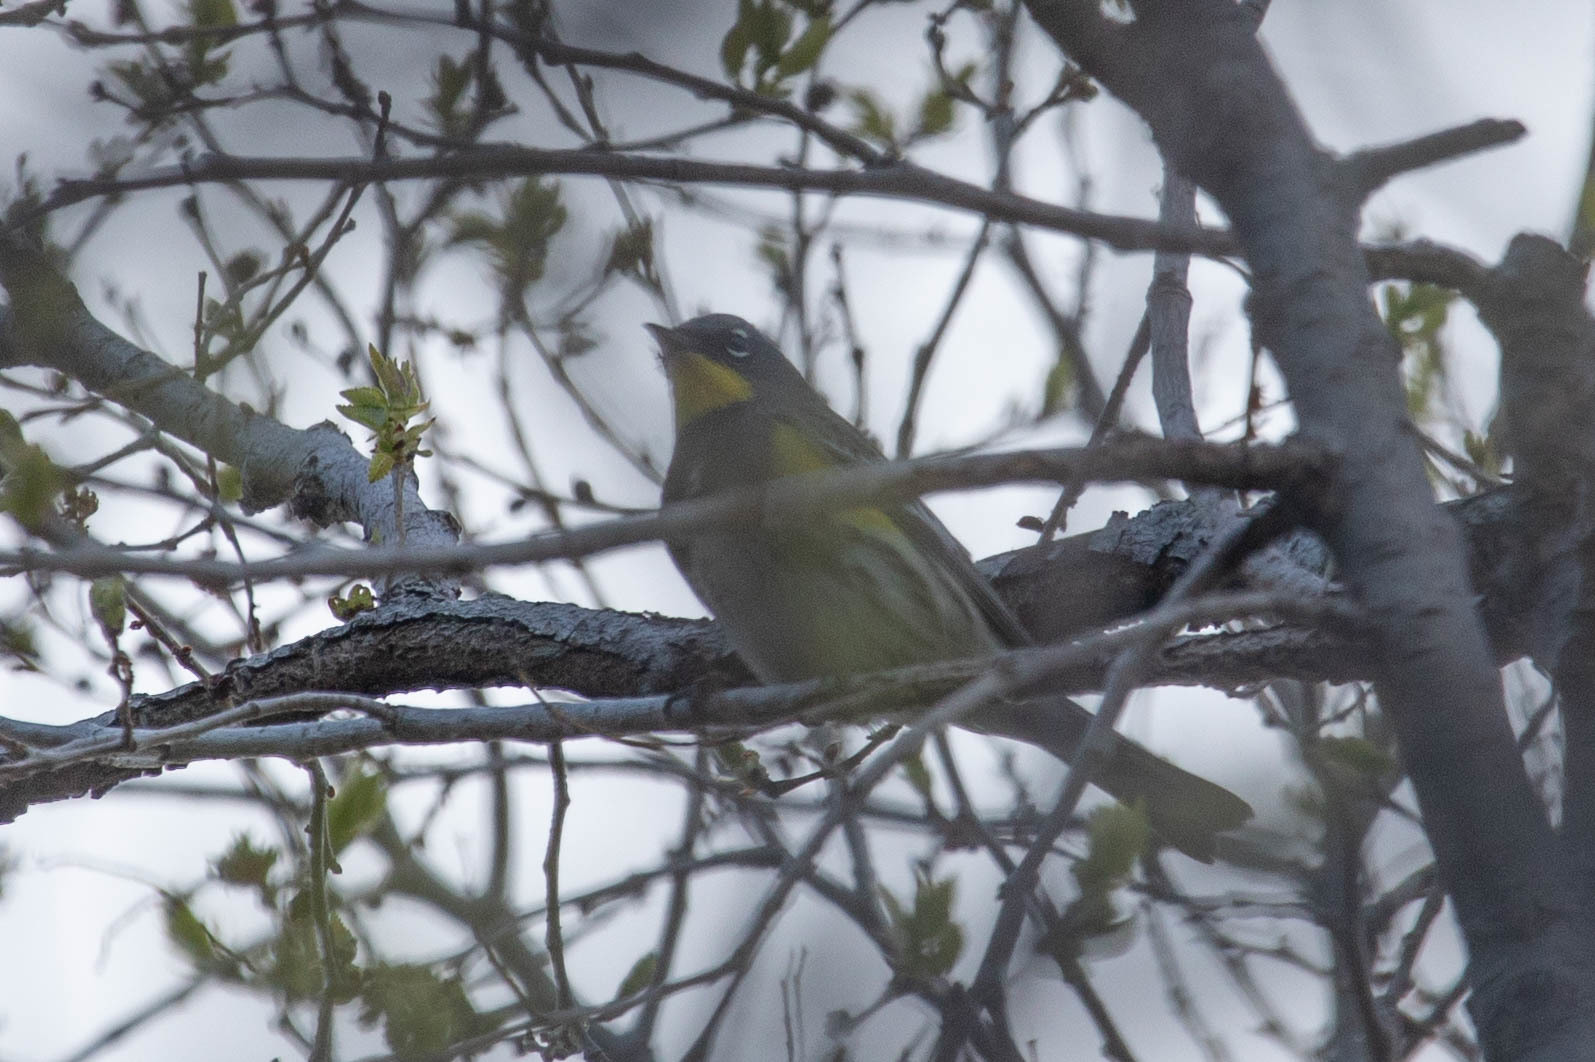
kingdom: Animalia
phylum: Chordata
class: Aves
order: Passeriformes
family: Parulidae
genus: Setophaga
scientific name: Setophaga auduboni
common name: Audubon's warbler
